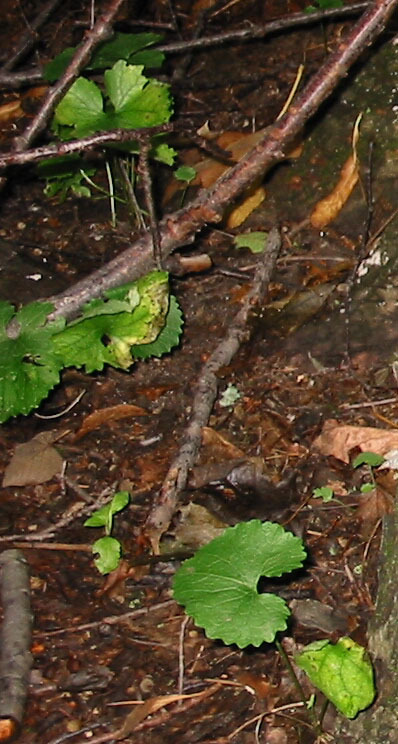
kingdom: Plantae
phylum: Tracheophyta
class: Magnoliopsida
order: Brassicales
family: Brassicaceae
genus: Alliaria
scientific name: Alliaria petiolata
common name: Garlic mustard
